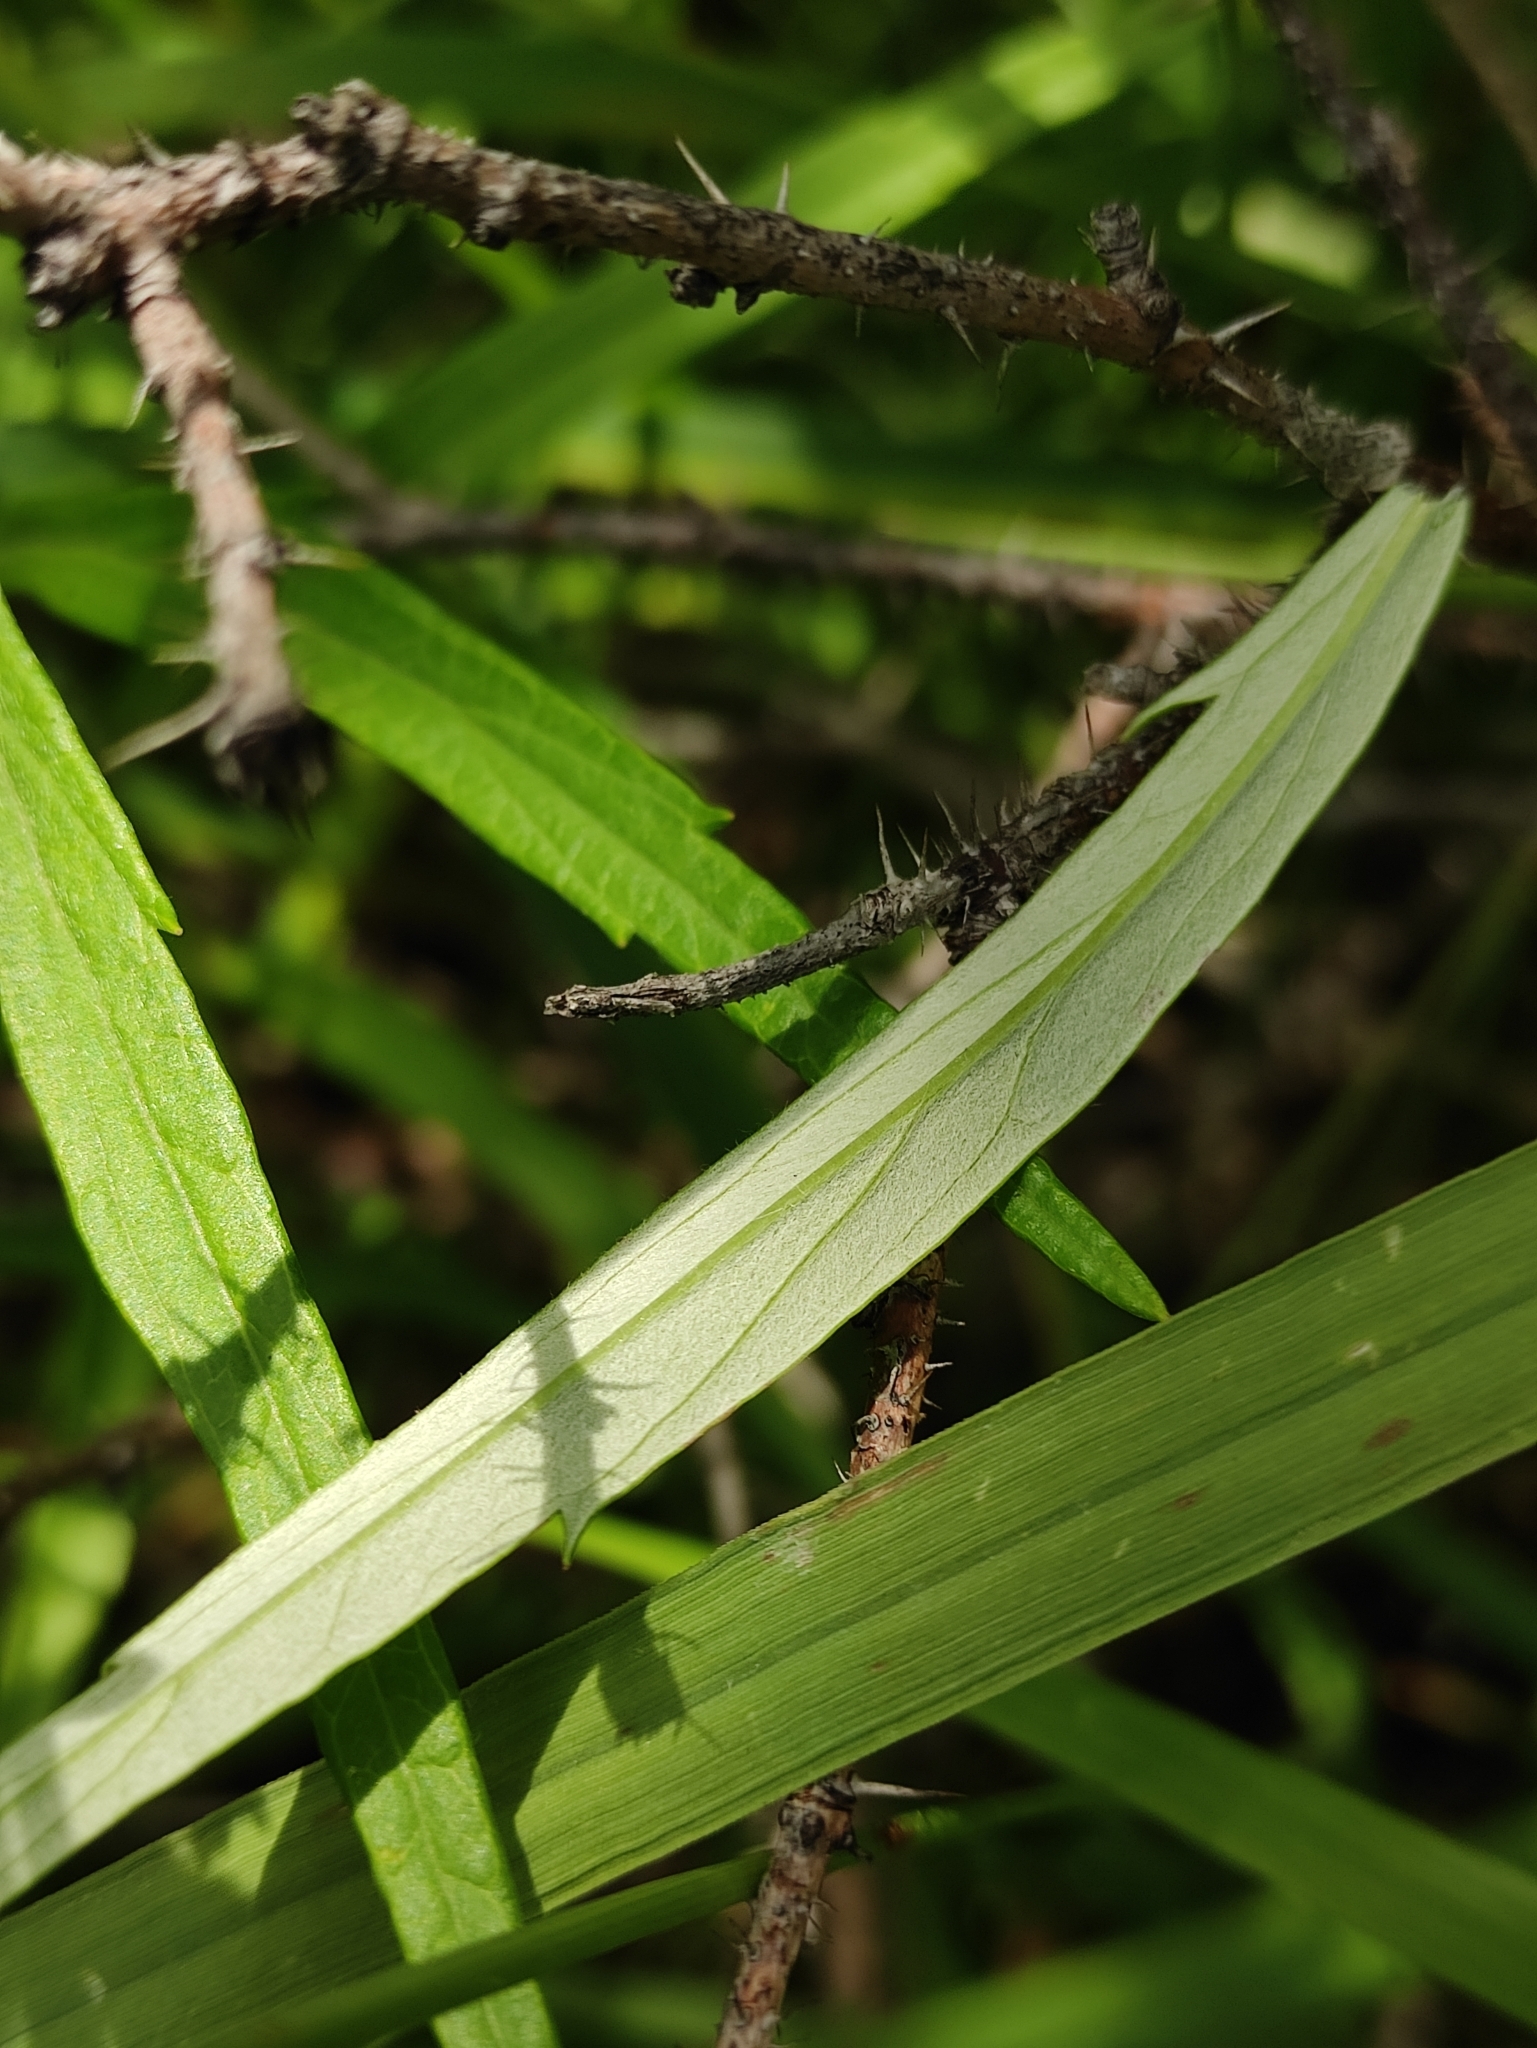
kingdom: Plantae
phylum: Tracheophyta
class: Magnoliopsida
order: Asterales
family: Asteraceae
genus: Artemisia
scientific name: Artemisia integrifolia
